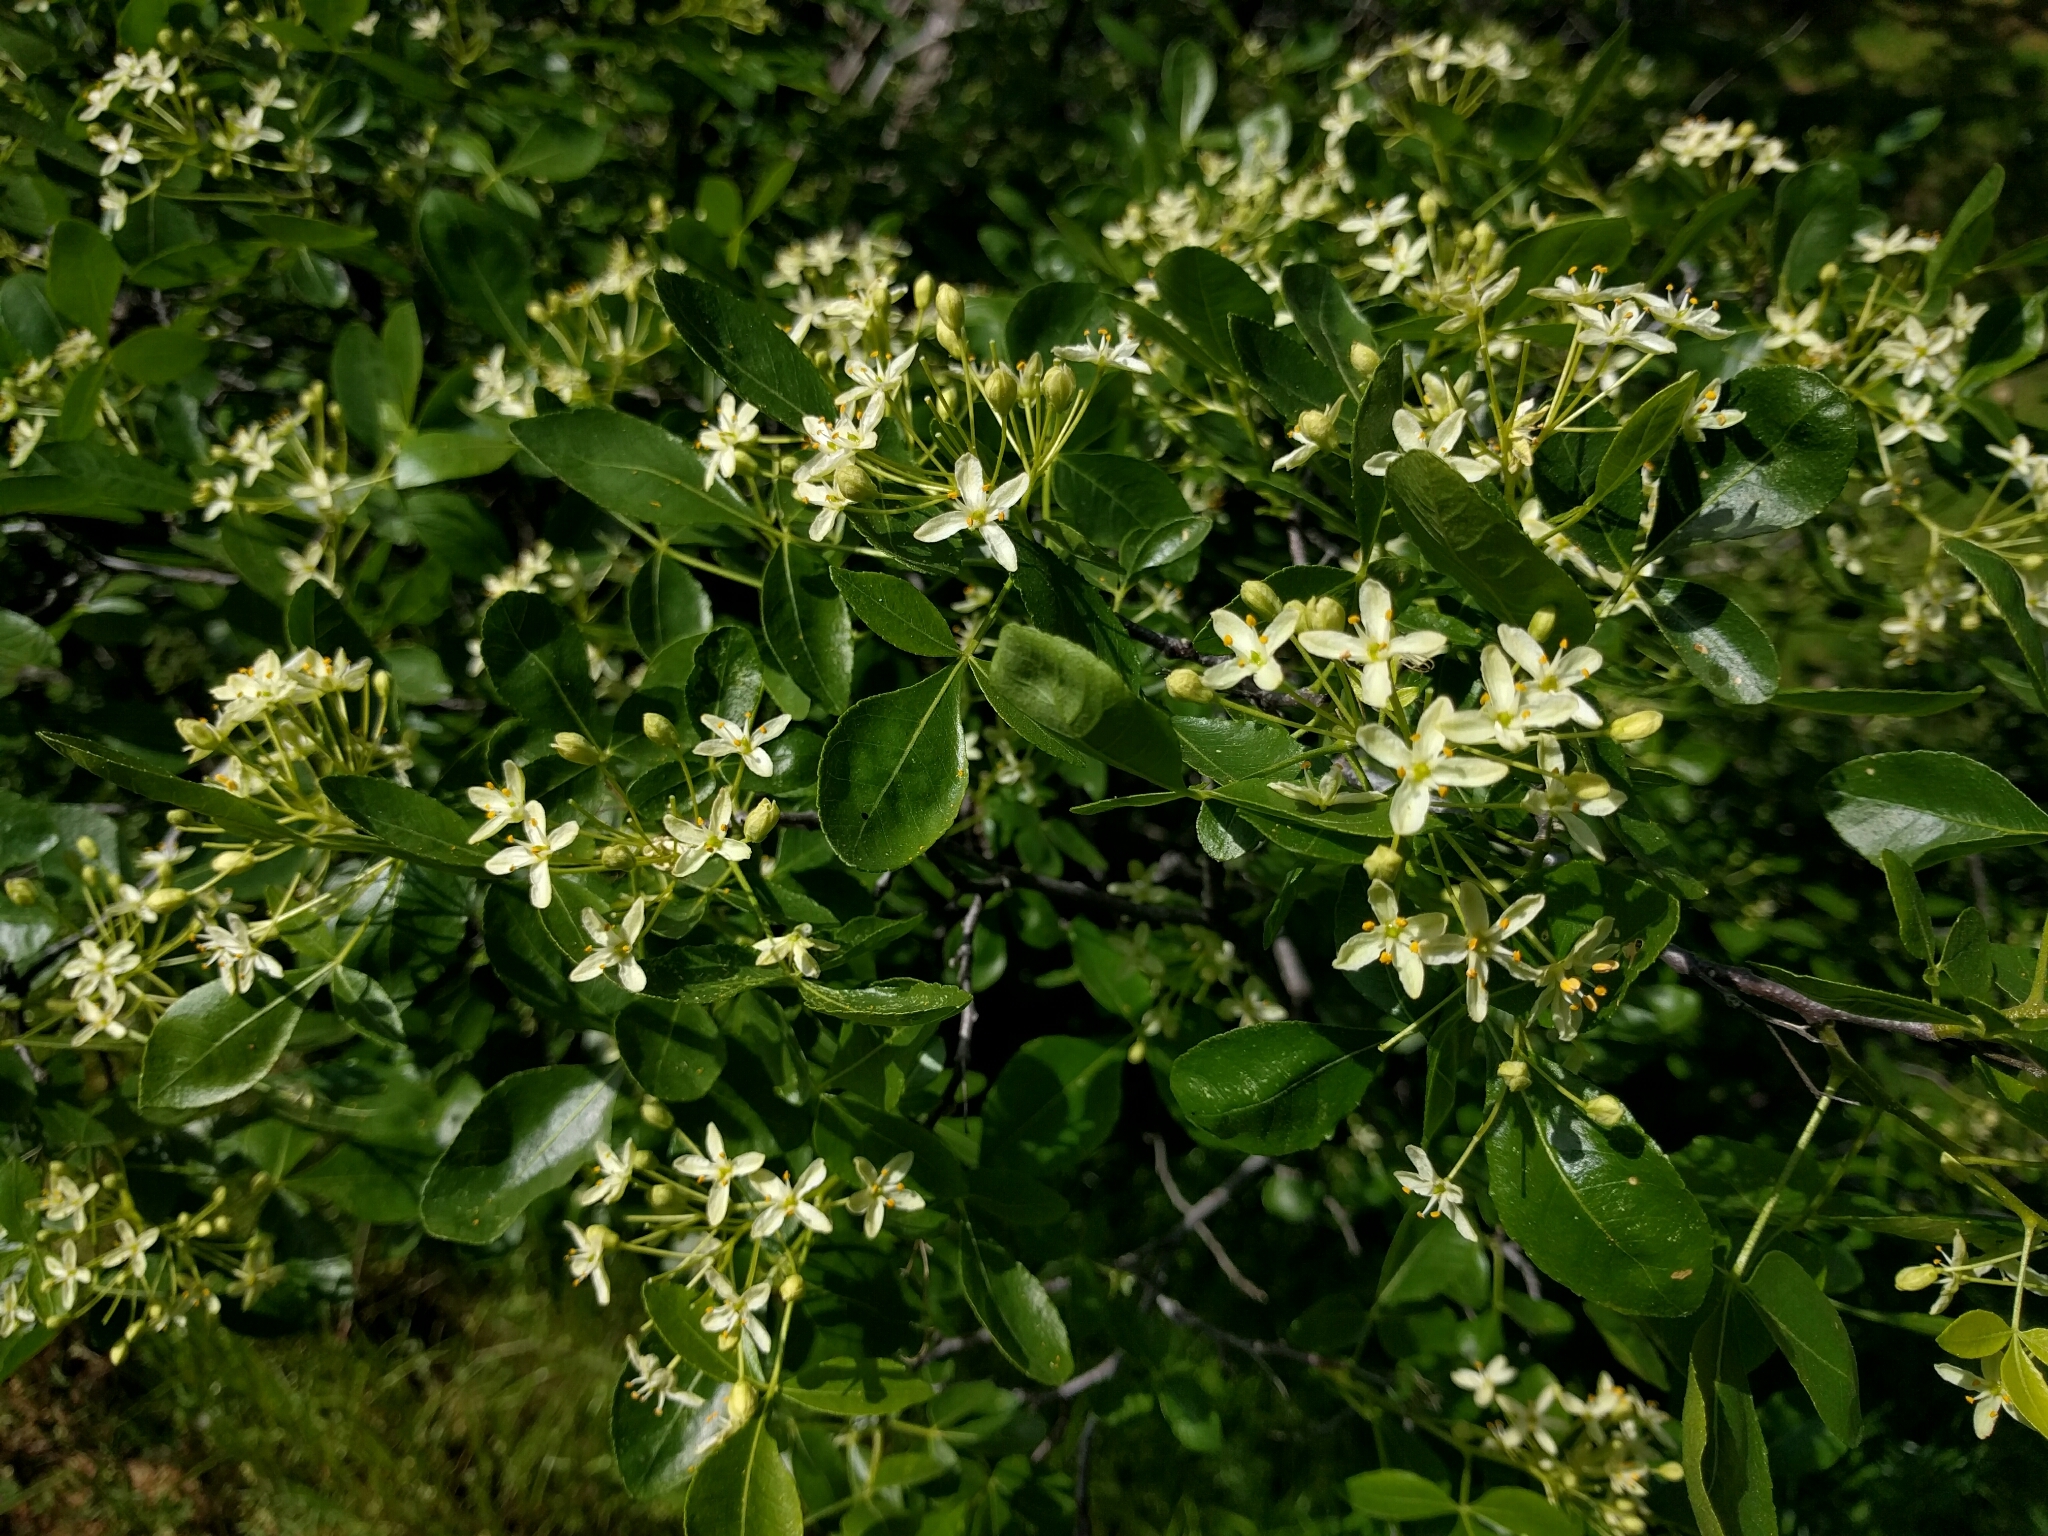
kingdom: Plantae
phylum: Tracheophyta
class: Magnoliopsida
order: Sapindales
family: Rutaceae
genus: Ptelea
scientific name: Ptelea crenulata
